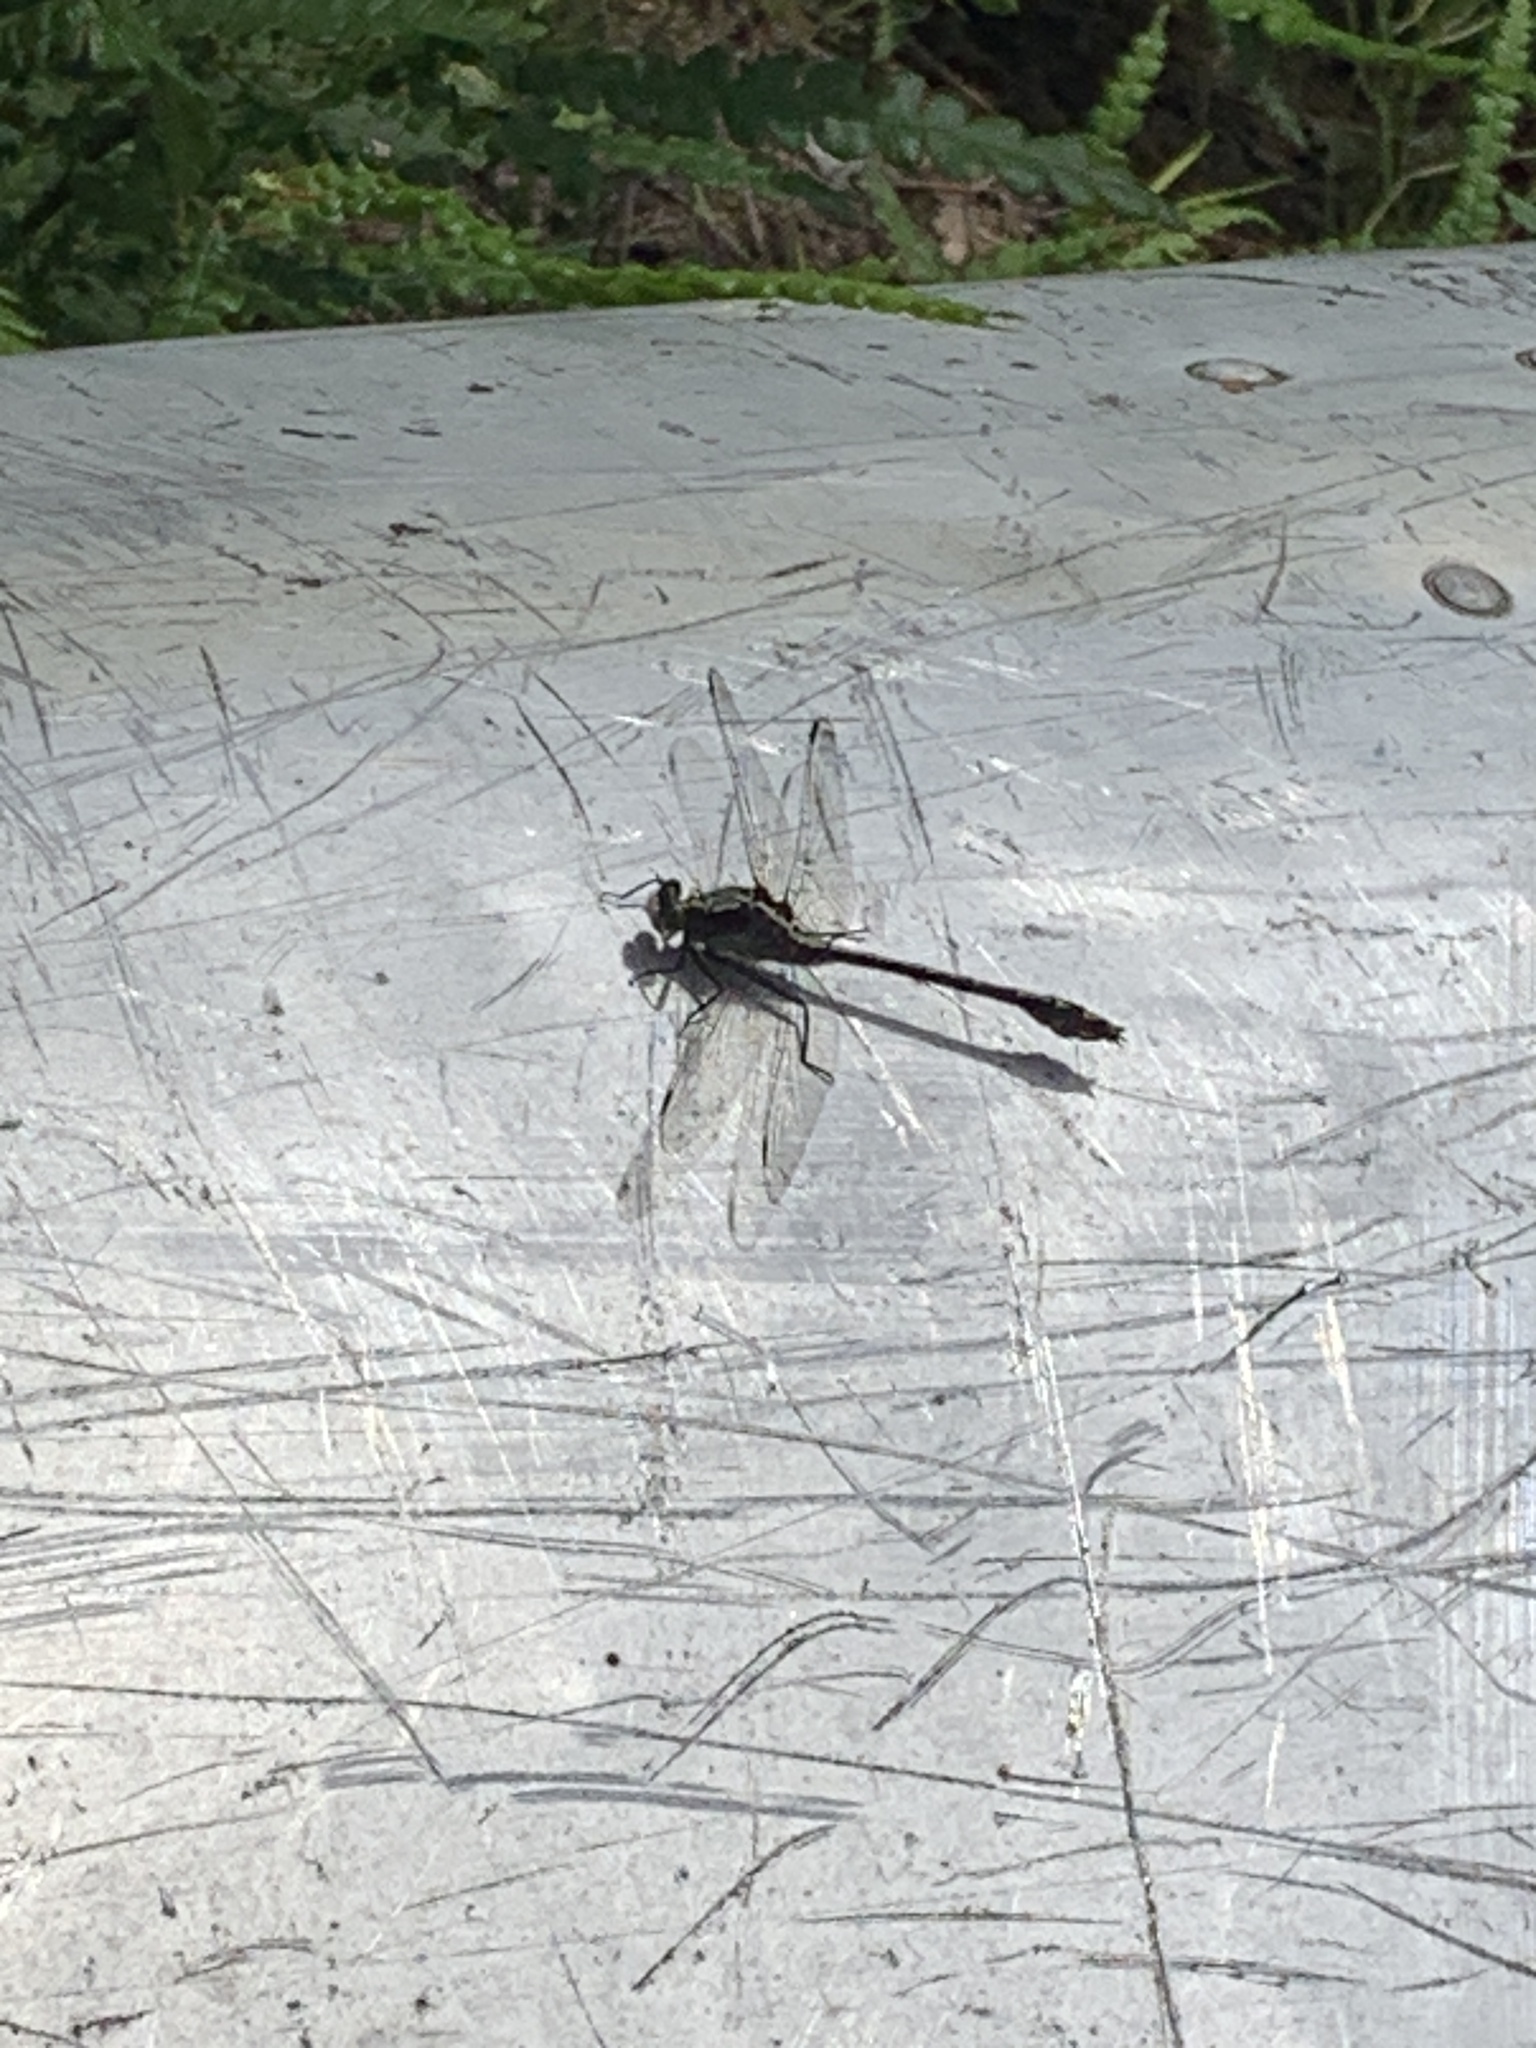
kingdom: Animalia
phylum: Arthropoda
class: Insecta
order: Odonata
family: Gomphidae
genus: Dromogomphus
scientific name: Dromogomphus spinosus
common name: Black-shouldered spinyleg
